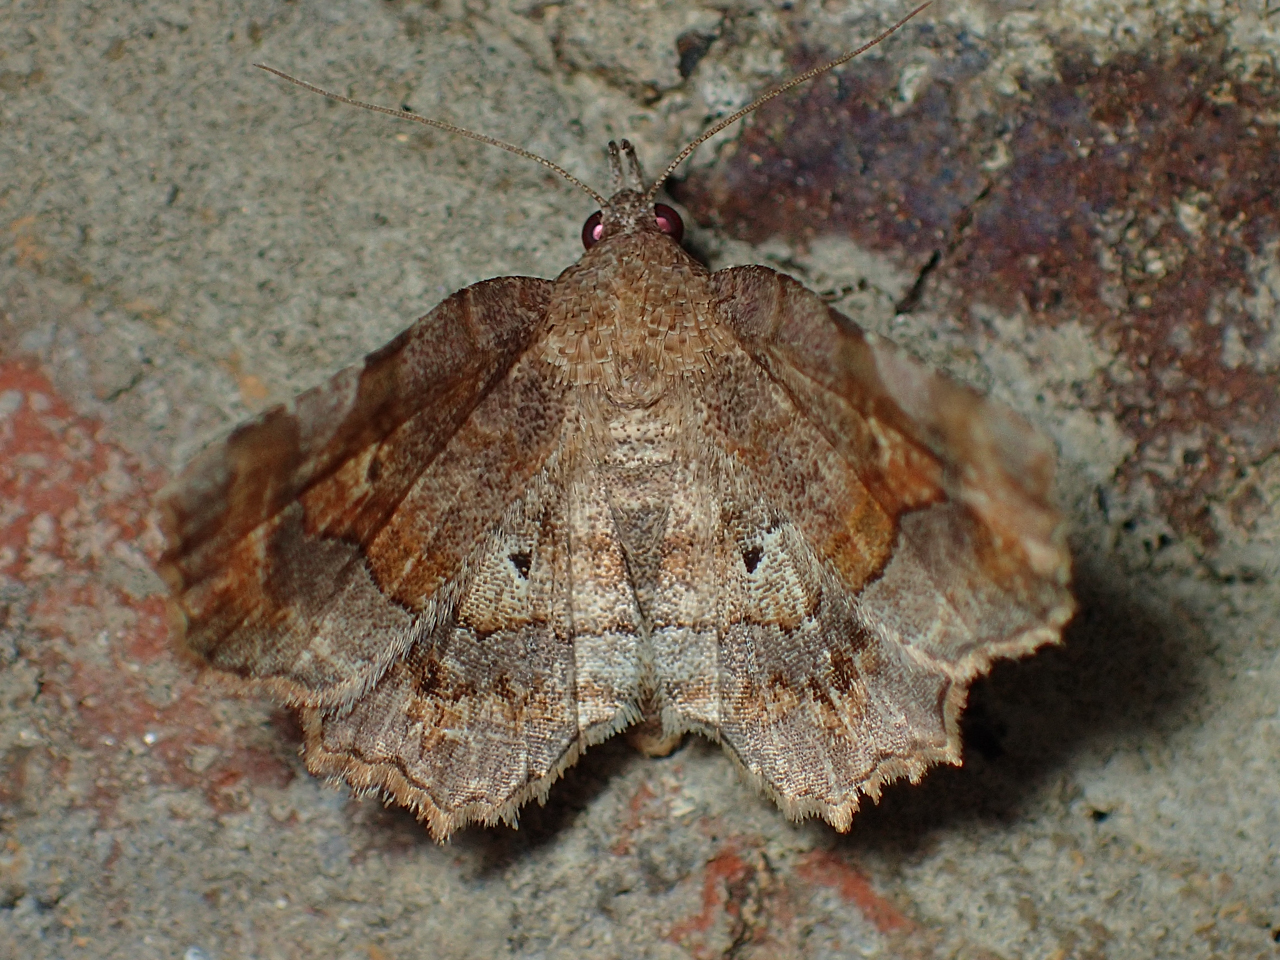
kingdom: Animalia
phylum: Arthropoda
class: Insecta
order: Lepidoptera
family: Erebidae
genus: Pangrapta
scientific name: Pangrapta decoralis
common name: Decorated owlet
